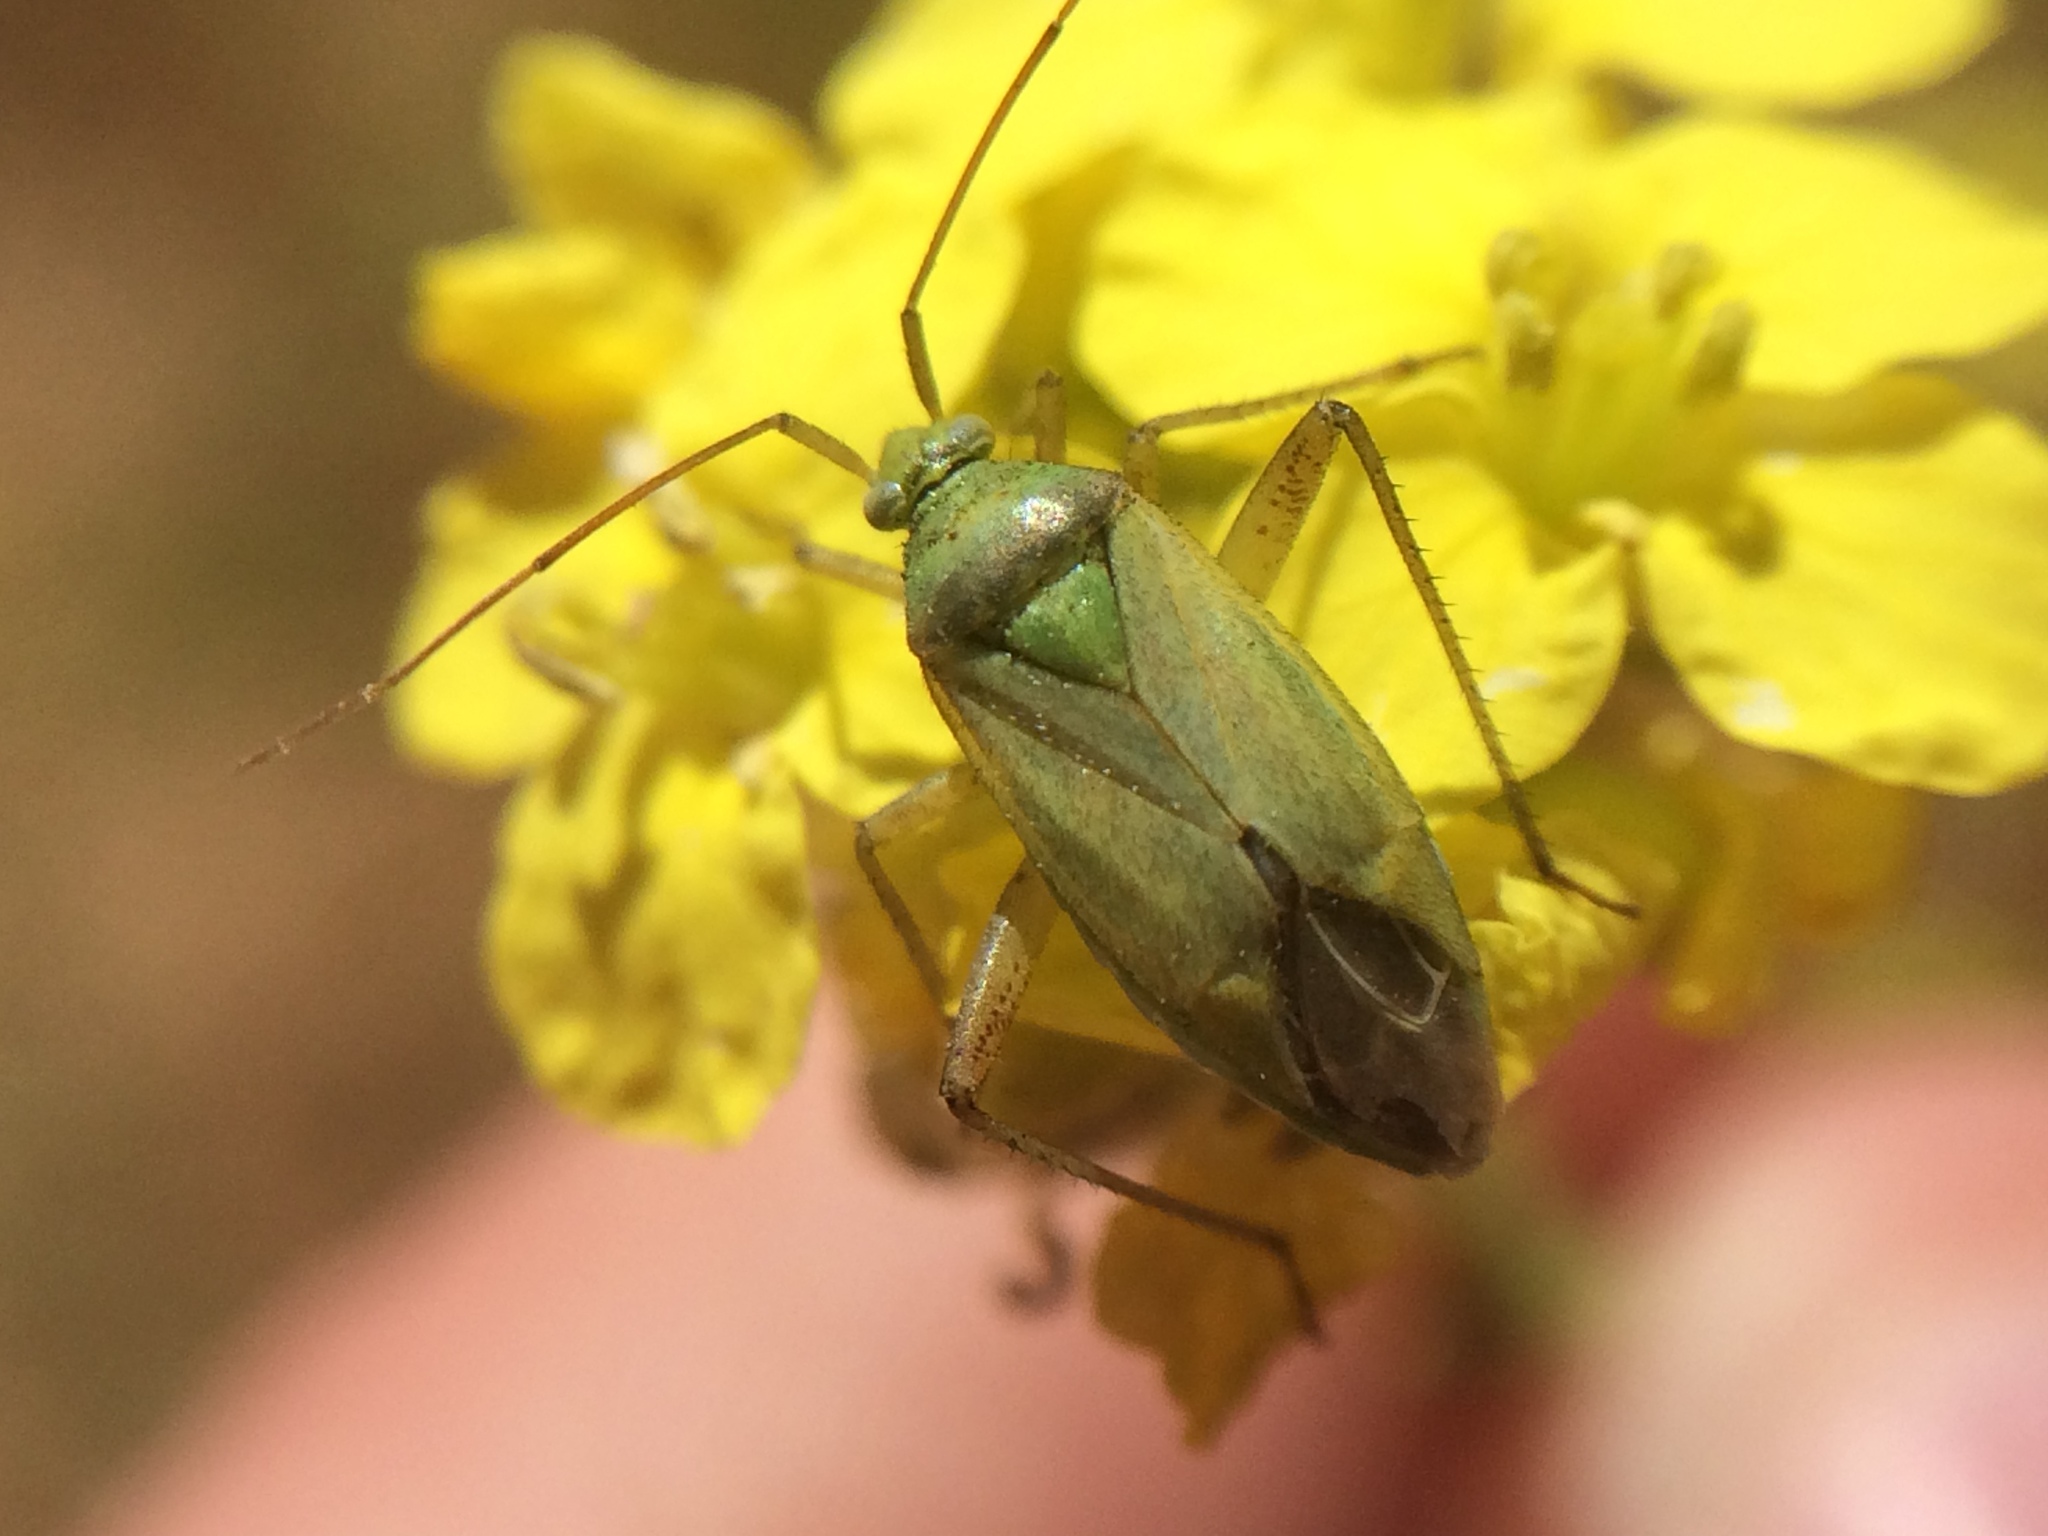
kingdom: Animalia
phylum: Arthropoda
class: Insecta
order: Hemiptera
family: Miridae
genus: Closterotomus
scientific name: Closterotomus norvegicus
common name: Plant bug
